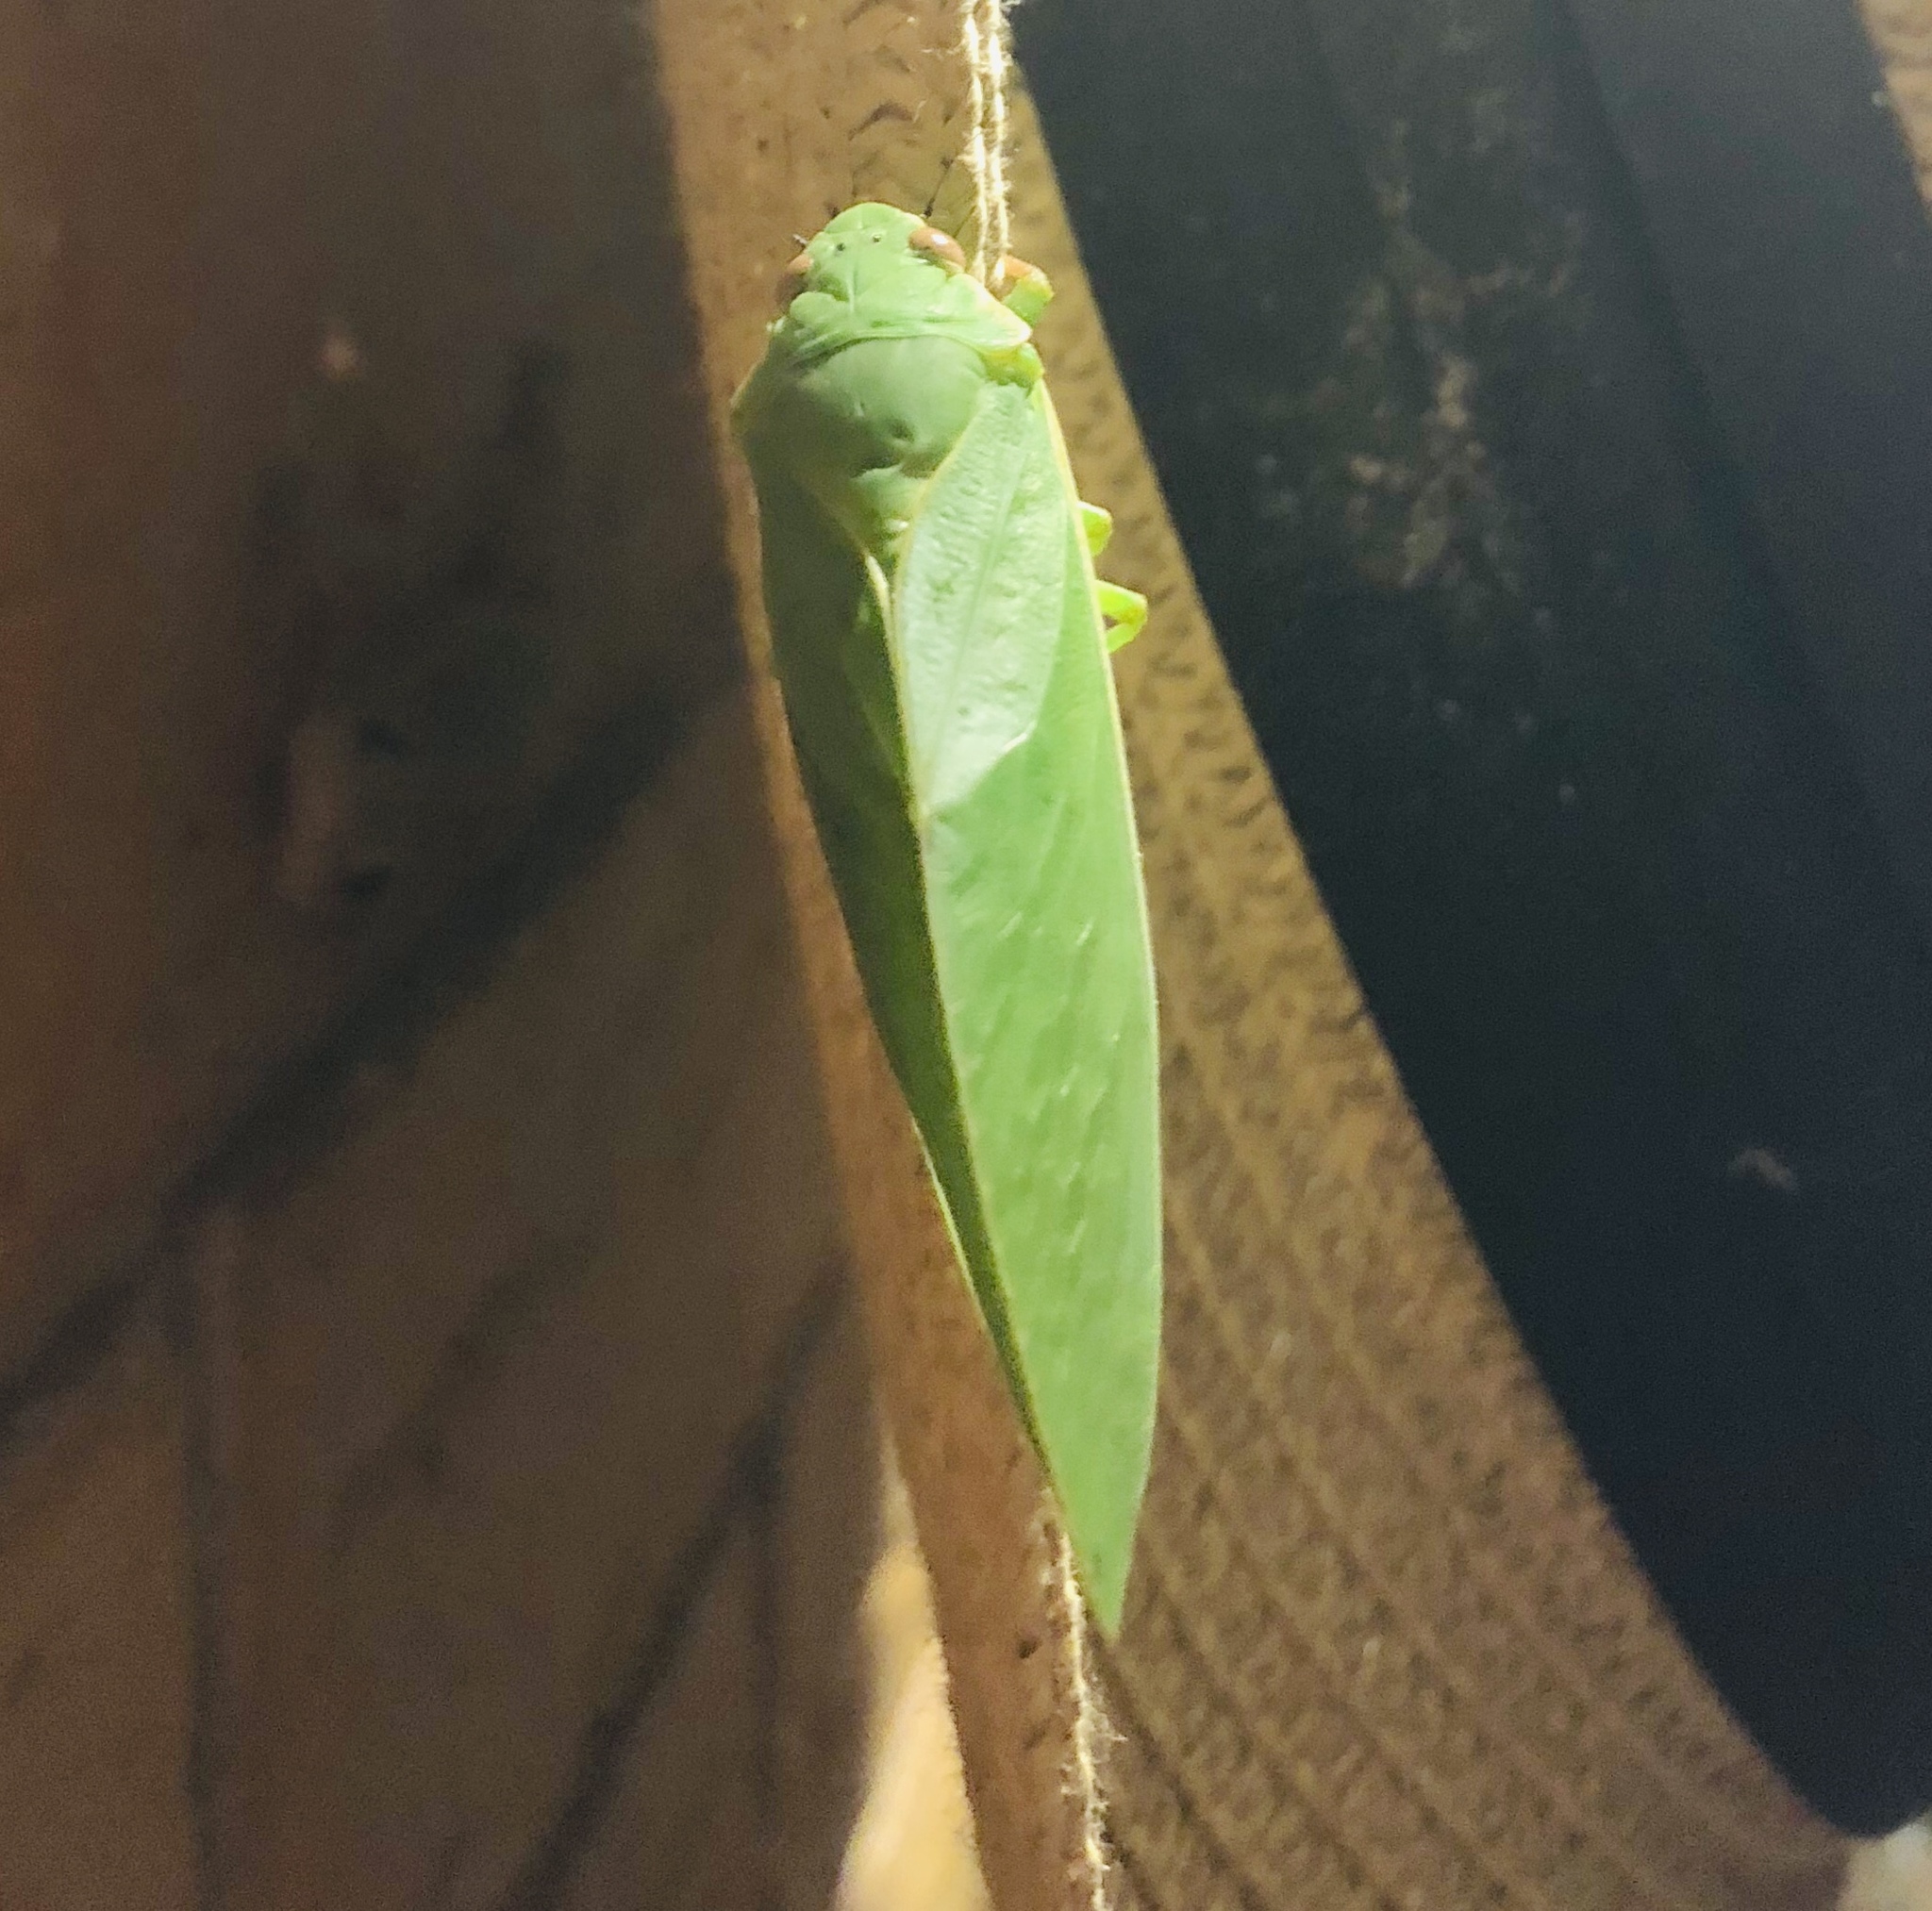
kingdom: Animalia
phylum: Arthropoda
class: Insecta
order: Hemiptera
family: Cicadidae
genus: Cystosoma
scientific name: Cystosoma saundersii
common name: Bladder cicada
